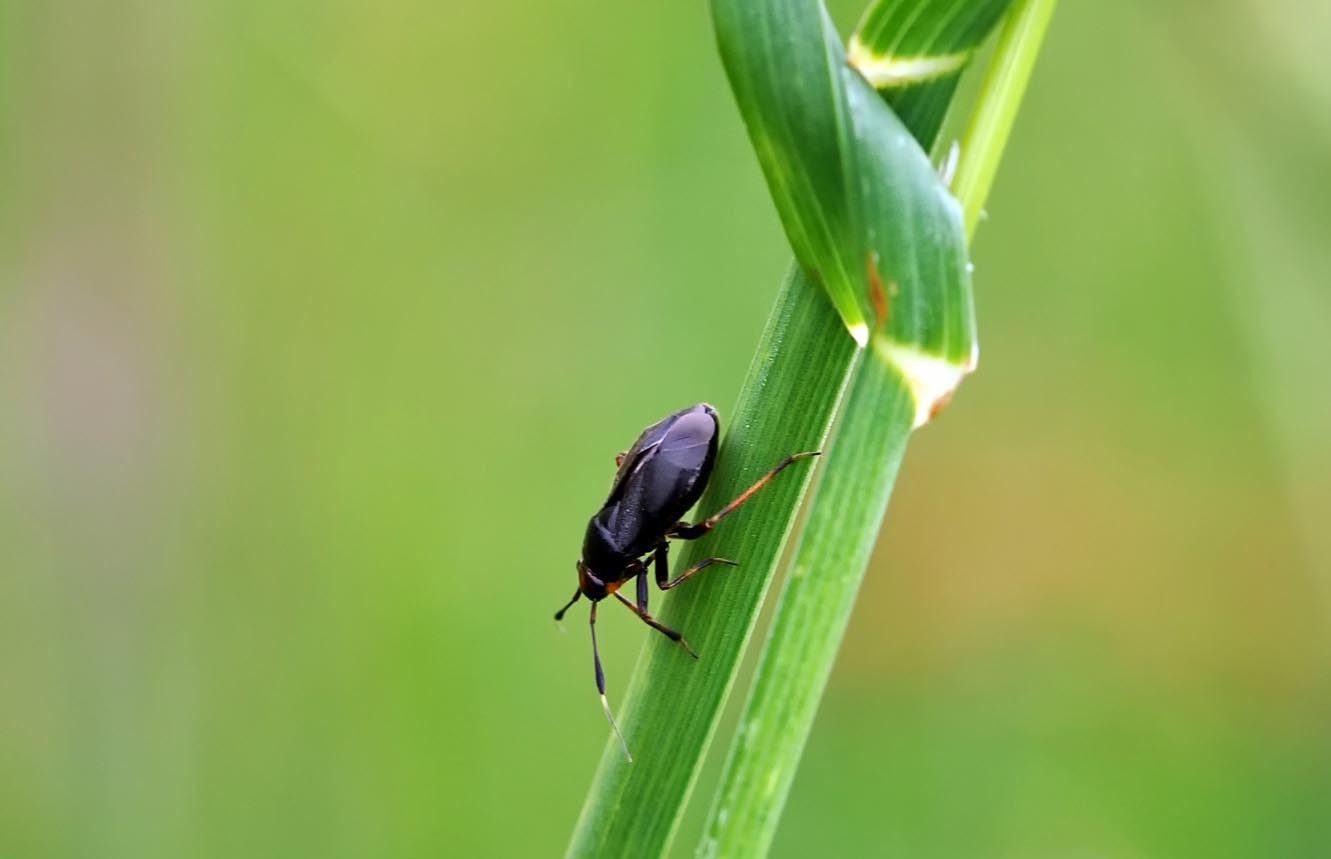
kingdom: Animalia
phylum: Arthropoda
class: Insecta
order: Hemiptera
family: Miridae
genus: Capsus
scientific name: Capsus ater
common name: Black plant bug
